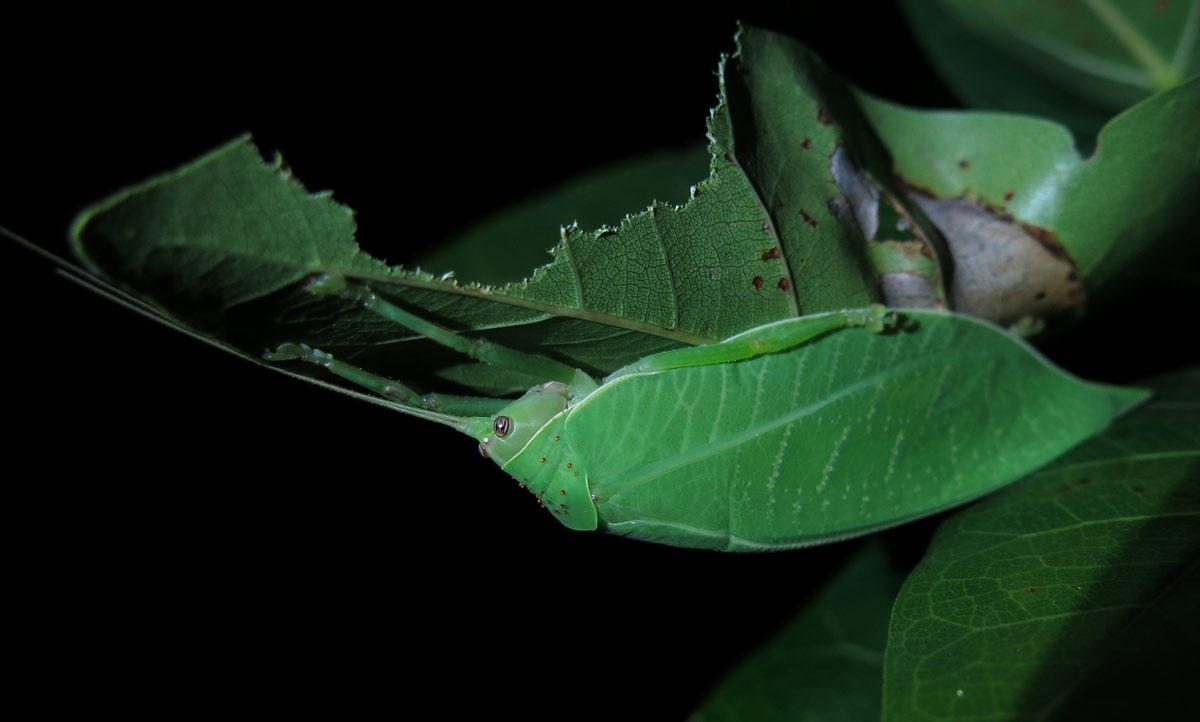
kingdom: Animalia
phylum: Arthropoda
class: Insecta
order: Orthoptera
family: Tettigoniidae
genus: Zabalius
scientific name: Zabalius ophthalmicus
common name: Blue-legged sylvan katydid
